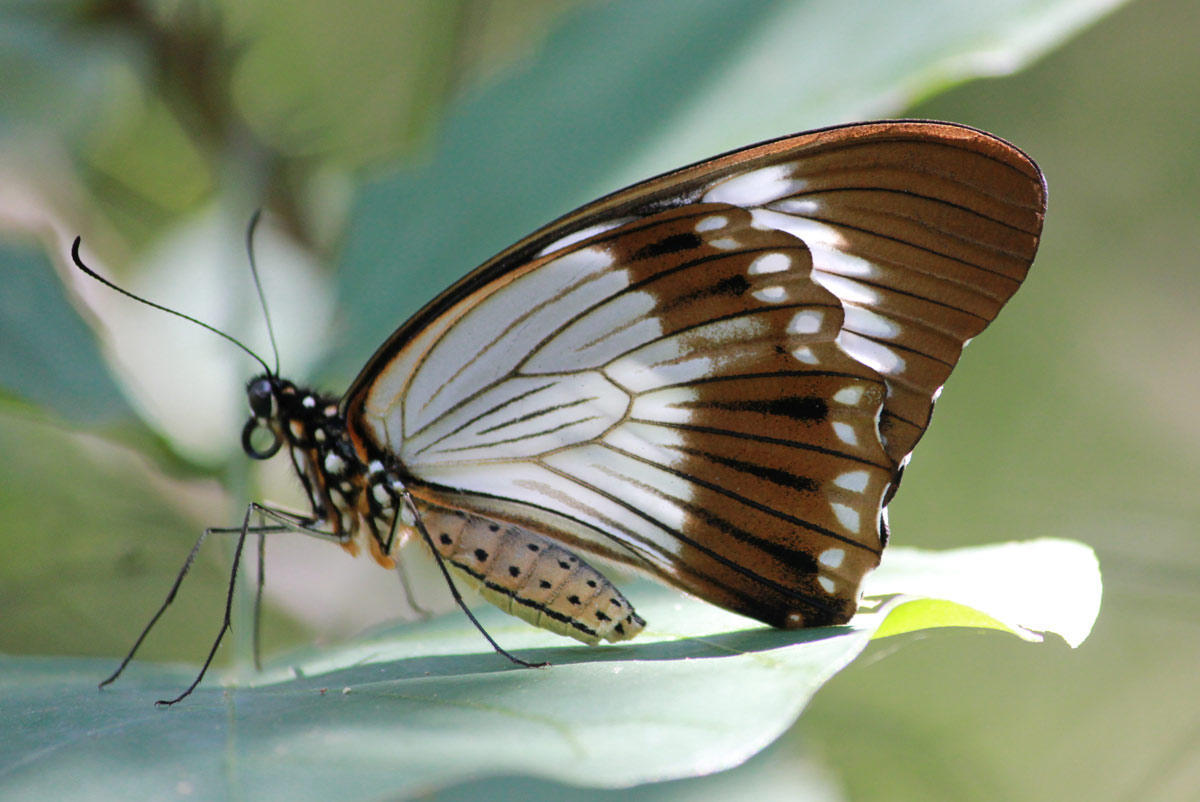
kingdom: Animalia
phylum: Arthropoda
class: Insecta
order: Lepidoptera
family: Papilionidae
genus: Papilio
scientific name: Papilio dardanus
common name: Flying handkerchief
